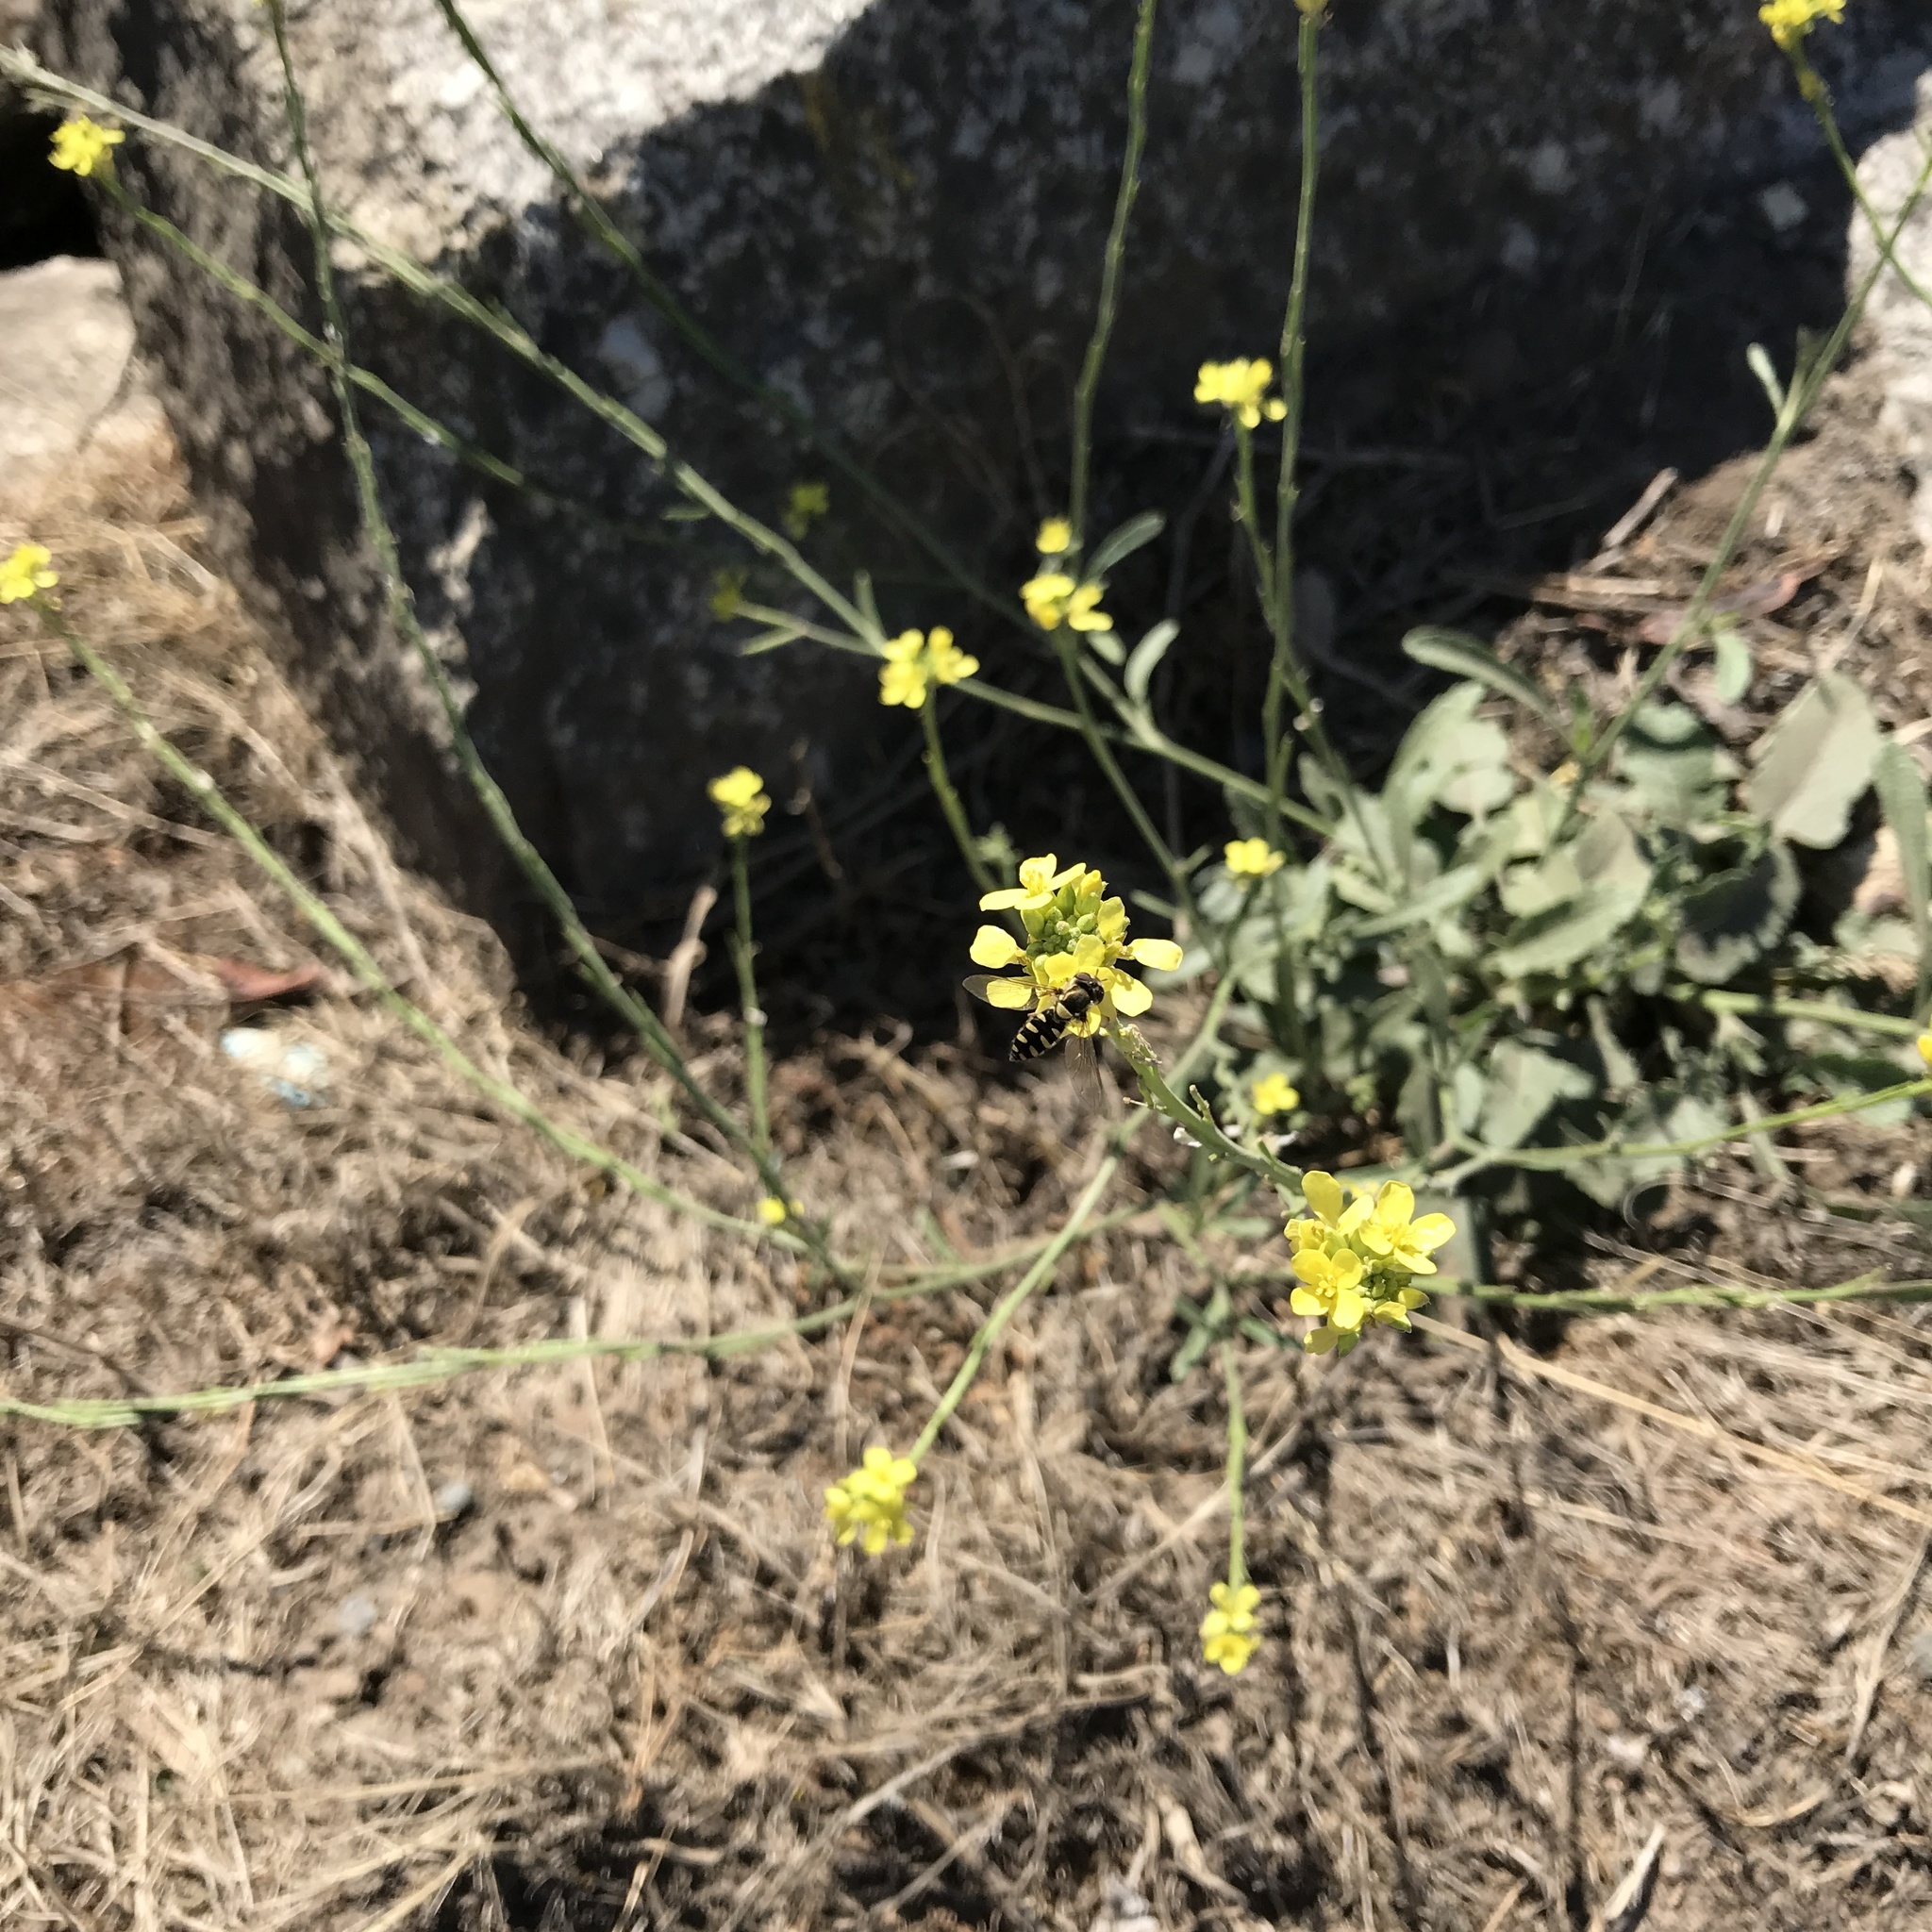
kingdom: Animalia
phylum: Arthropoda
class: Insecta
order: Diptera
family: Syrphidae
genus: Fazia
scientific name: Fazia macquarti
